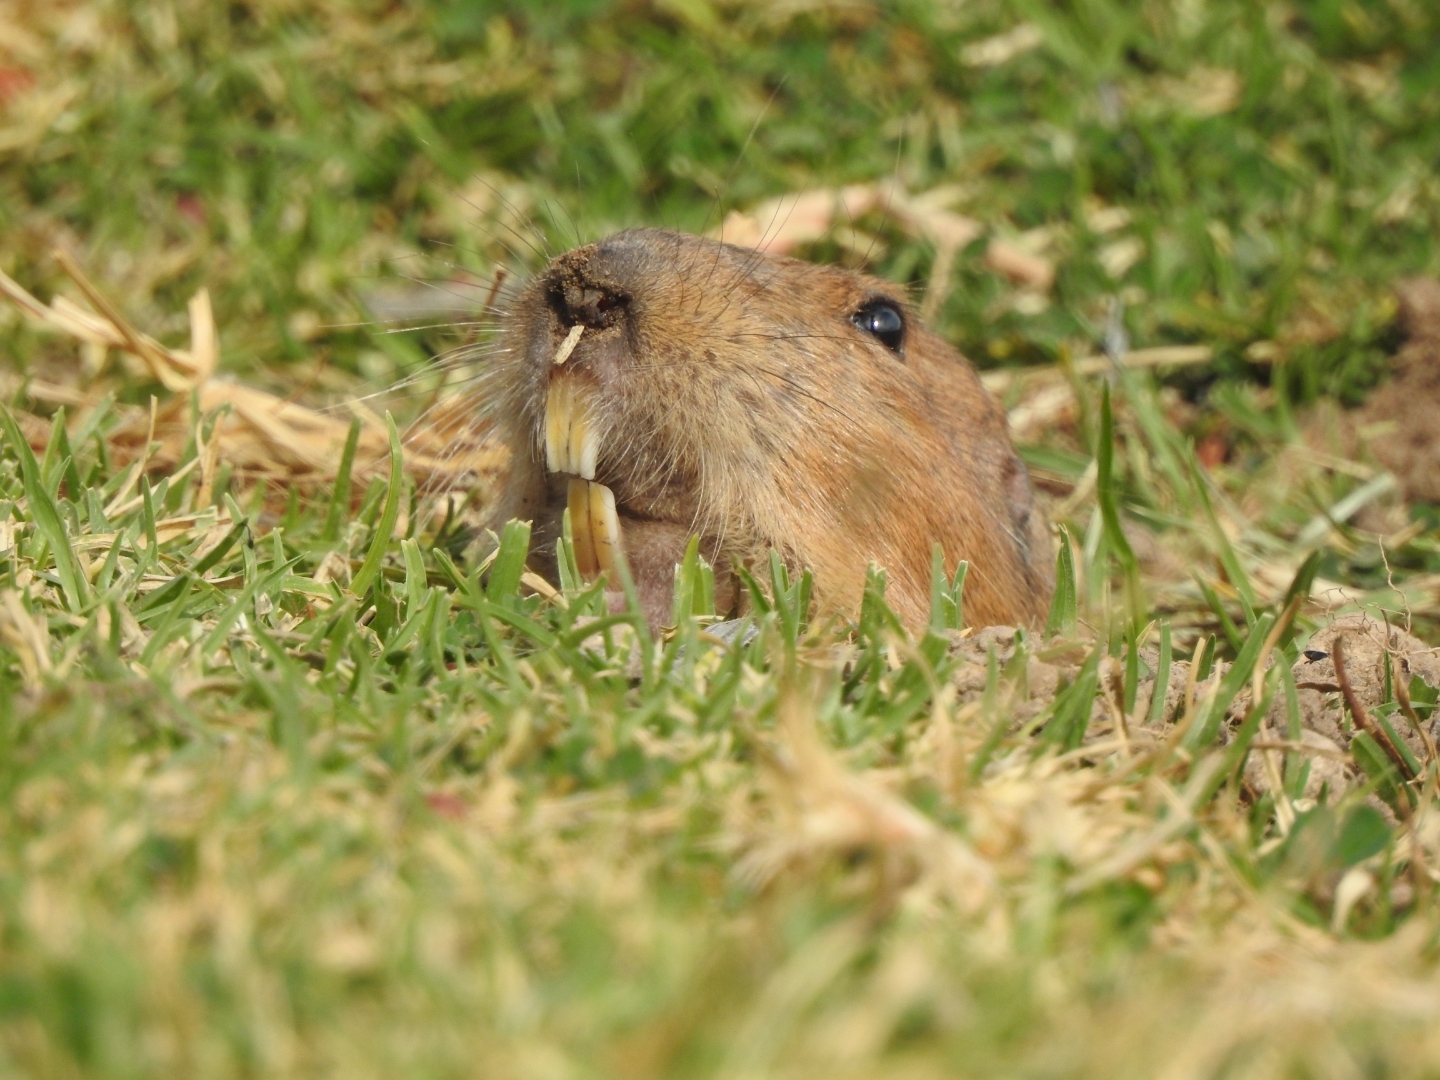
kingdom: Animalia
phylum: Chordata
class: Mammalia
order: Rodentia
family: Geomyidae
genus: Cratogeomys
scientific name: Cratogeomys goldmani
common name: Goldman s pocket gopher.
